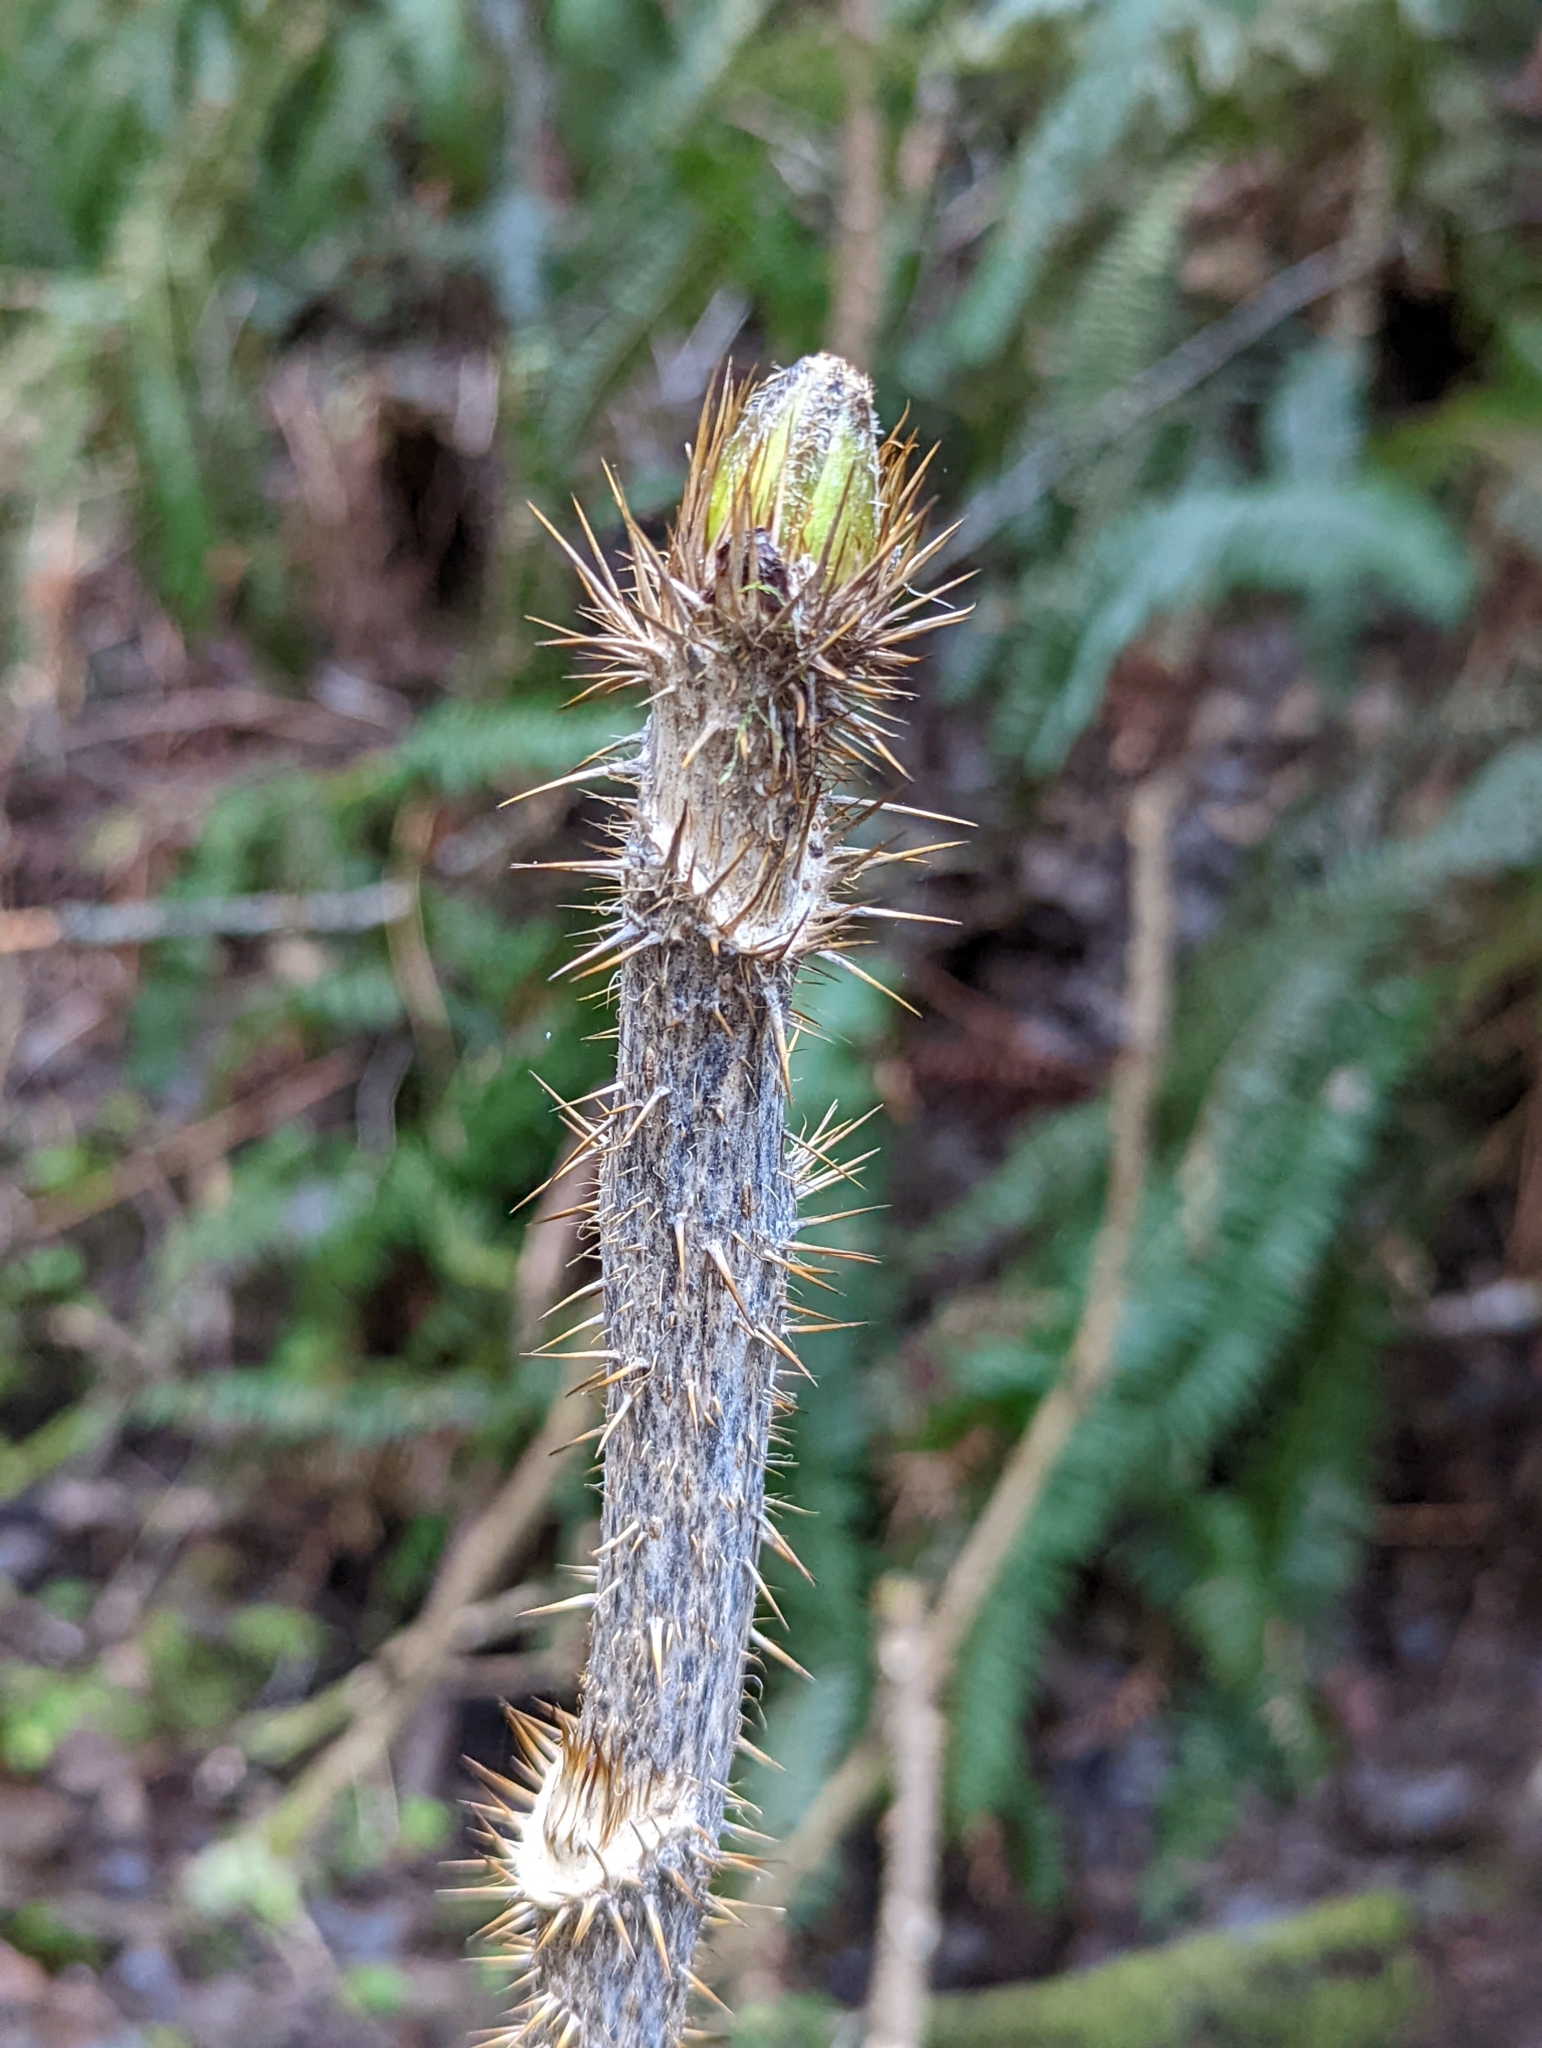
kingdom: Plantae
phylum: Tracheophyta
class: Magnoliopsida
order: Apiales
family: Araliaceae
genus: Oplopanax
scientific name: Oplopanax horridus
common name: Devil's walking-stick
